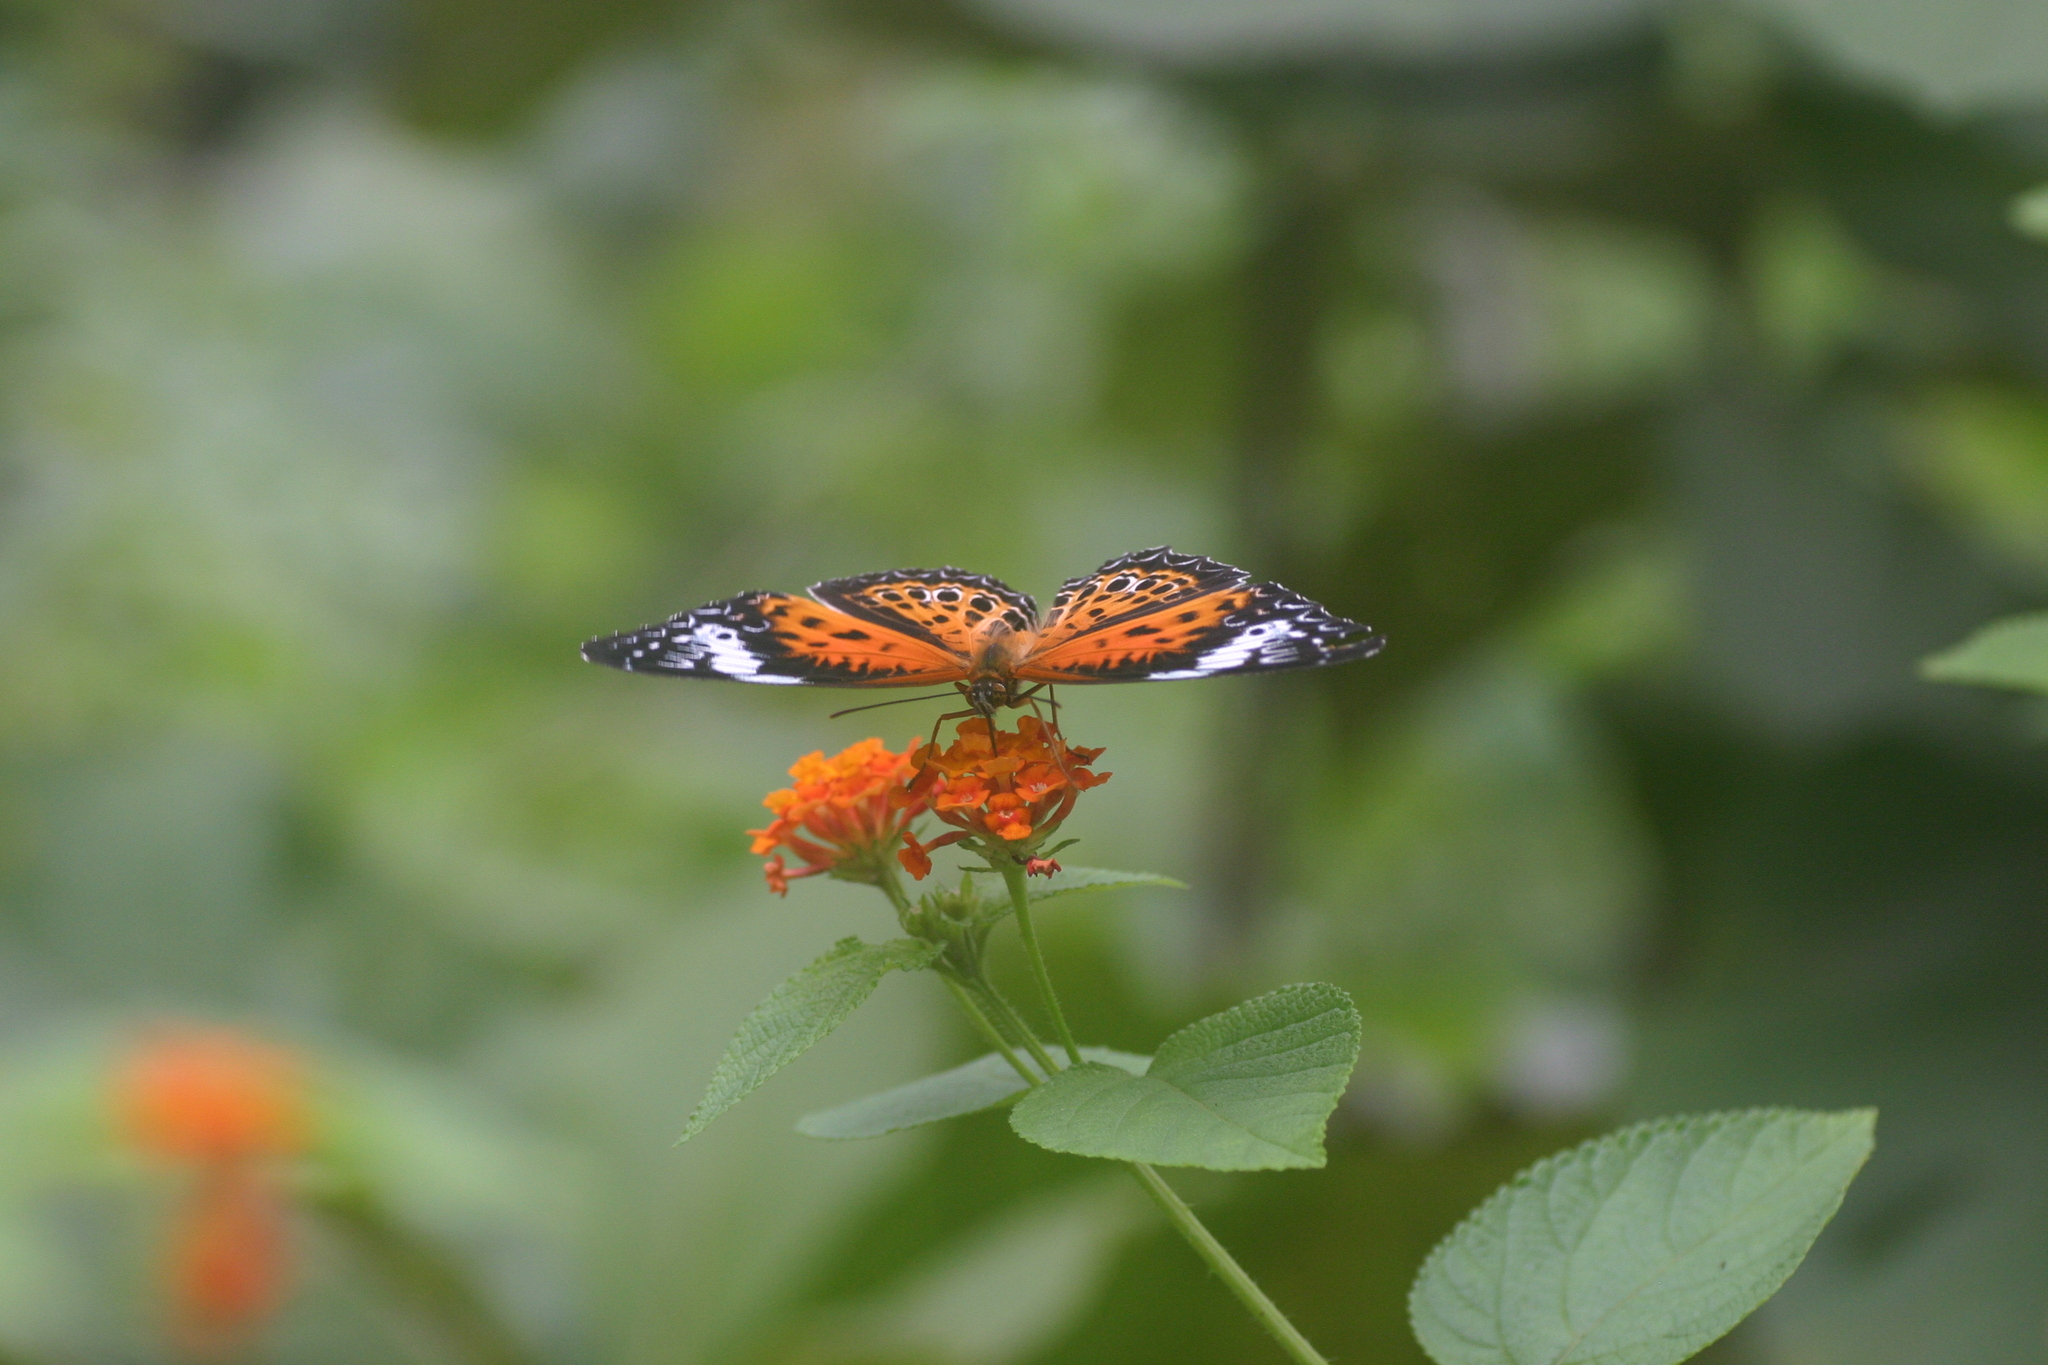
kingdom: Animalia
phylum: Arthropoda
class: Insecta
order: Lepidoptera
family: Nymphalidae
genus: Cethosia
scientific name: Cethosia
